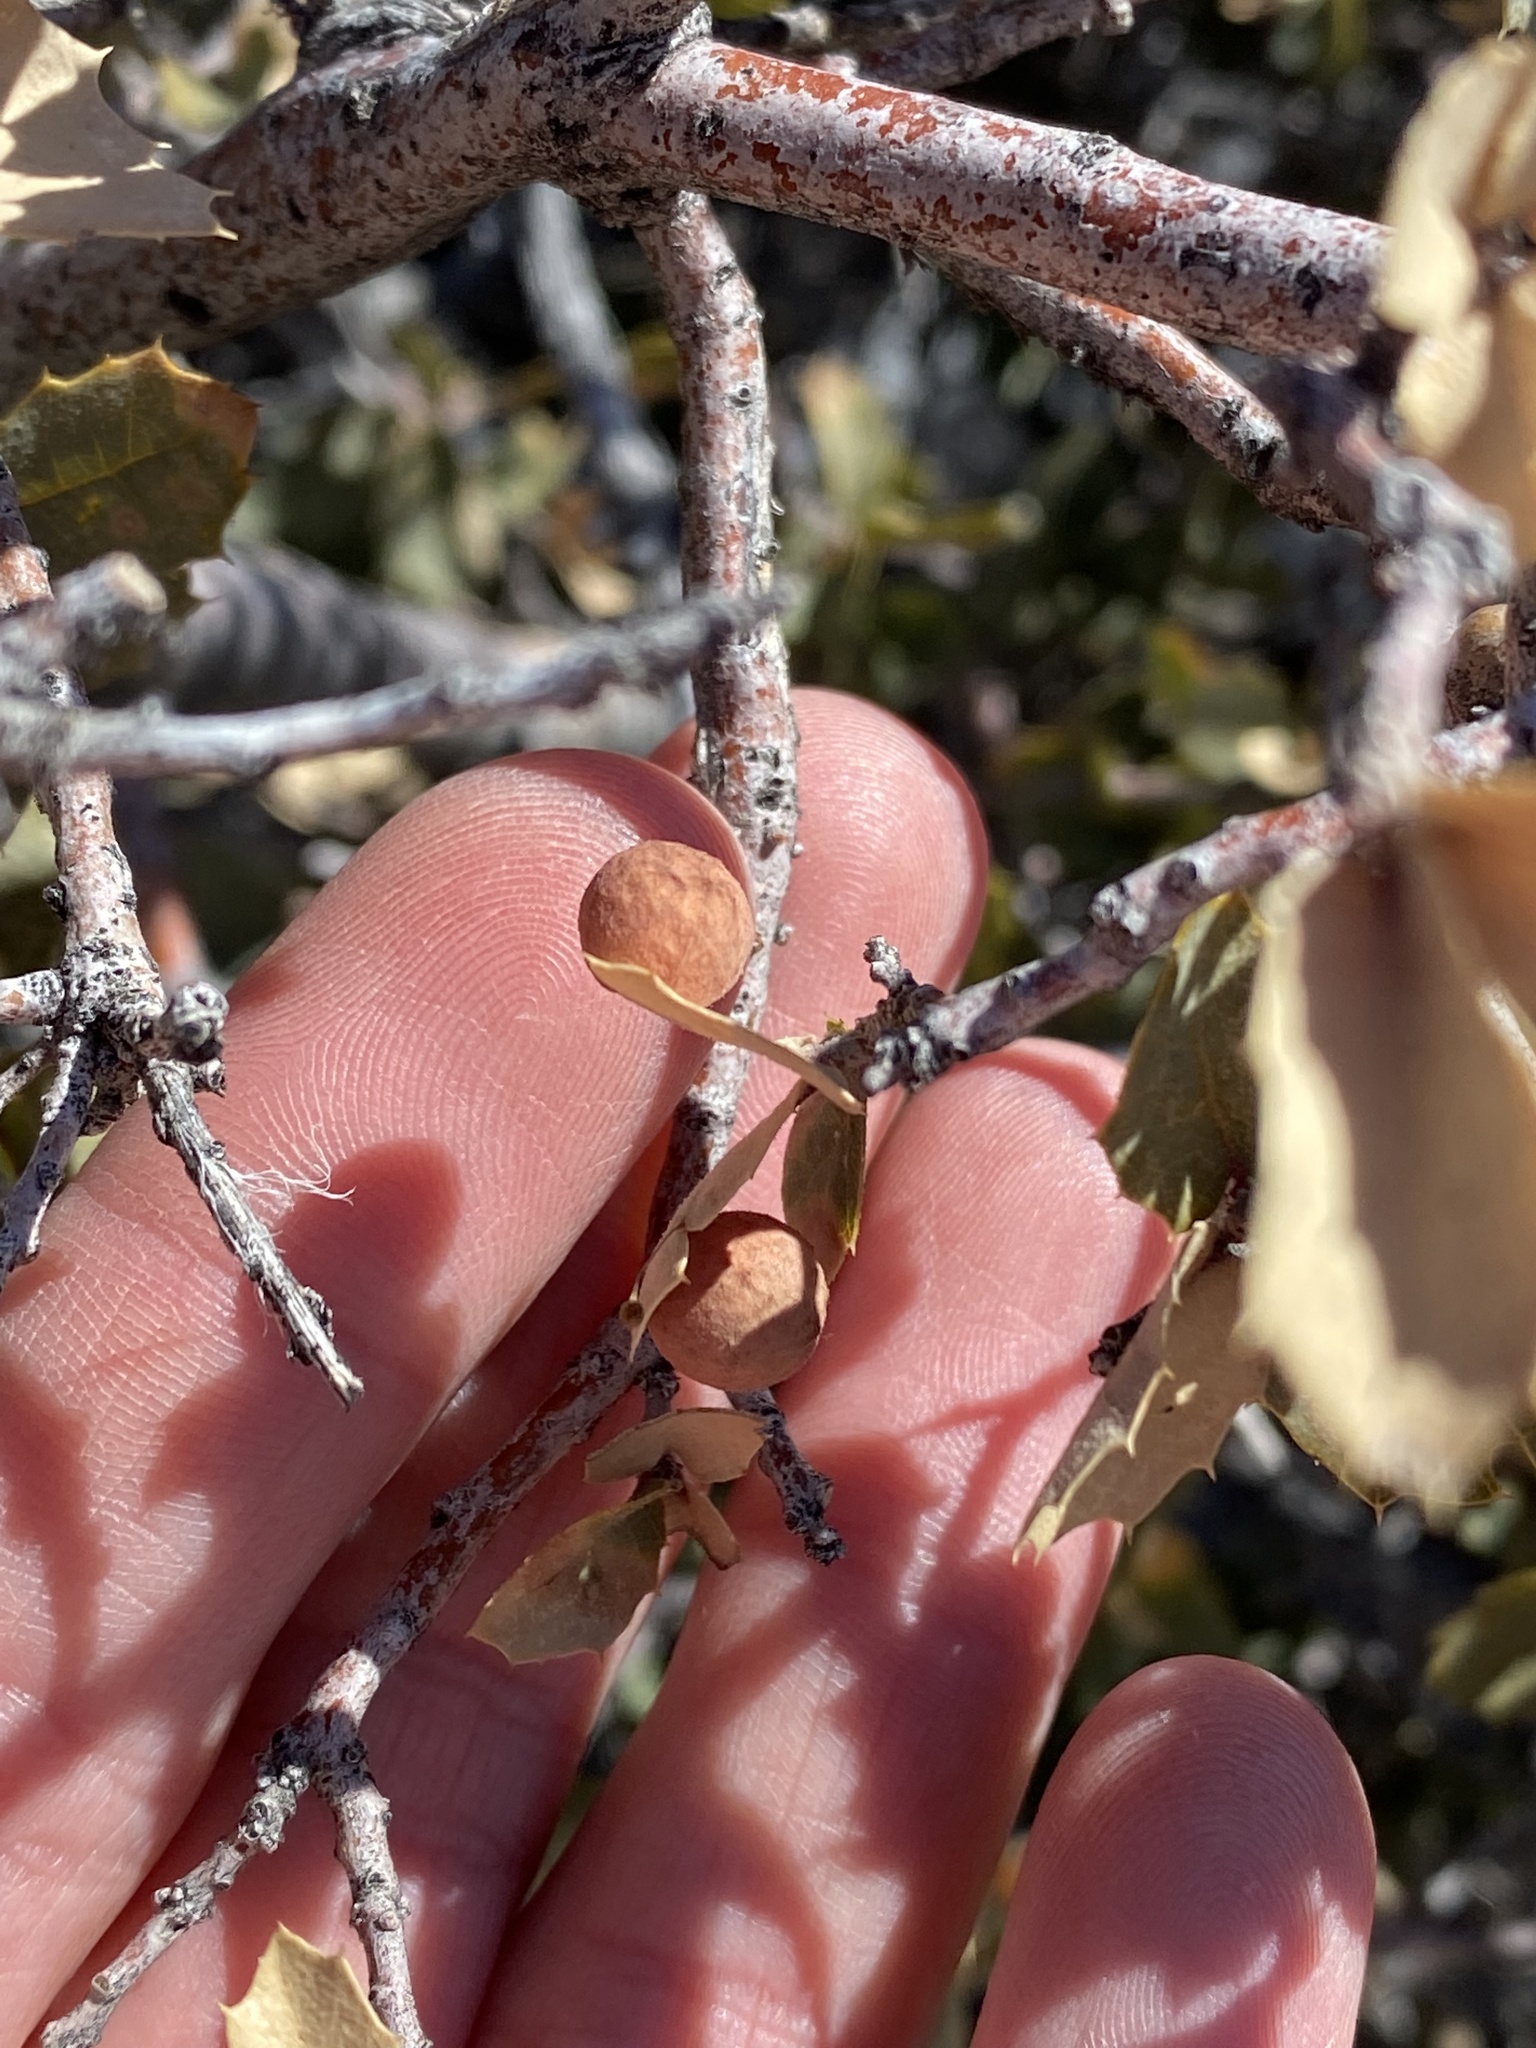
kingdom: Animalia
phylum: Arthropoda
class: Insecta
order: Hymenoptera
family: Cynipidae
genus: Atrusca
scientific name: Atrusca
